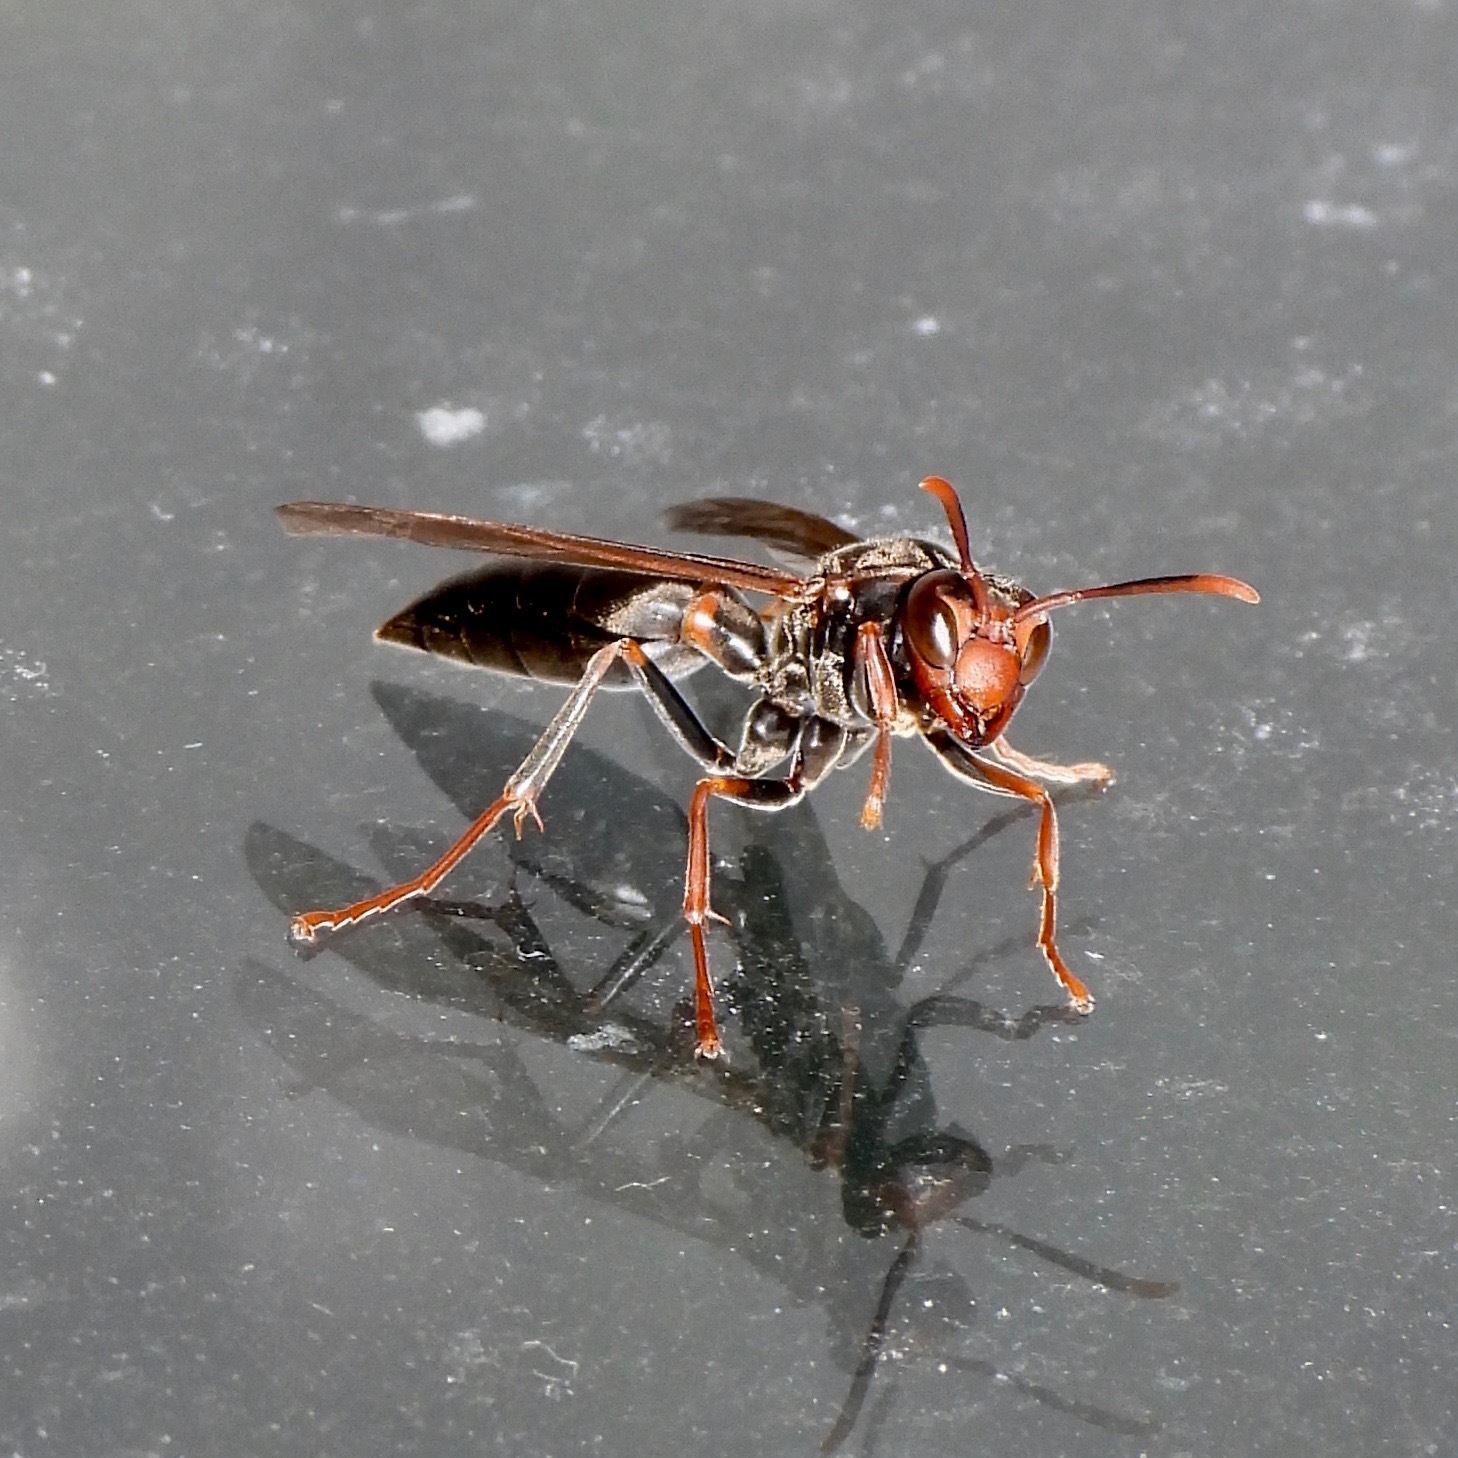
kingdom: Animalia
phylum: Arthropoda
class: Insecta
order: Hymenoptera
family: Eumenidae
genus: Polistes
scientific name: Polistes apicalis
